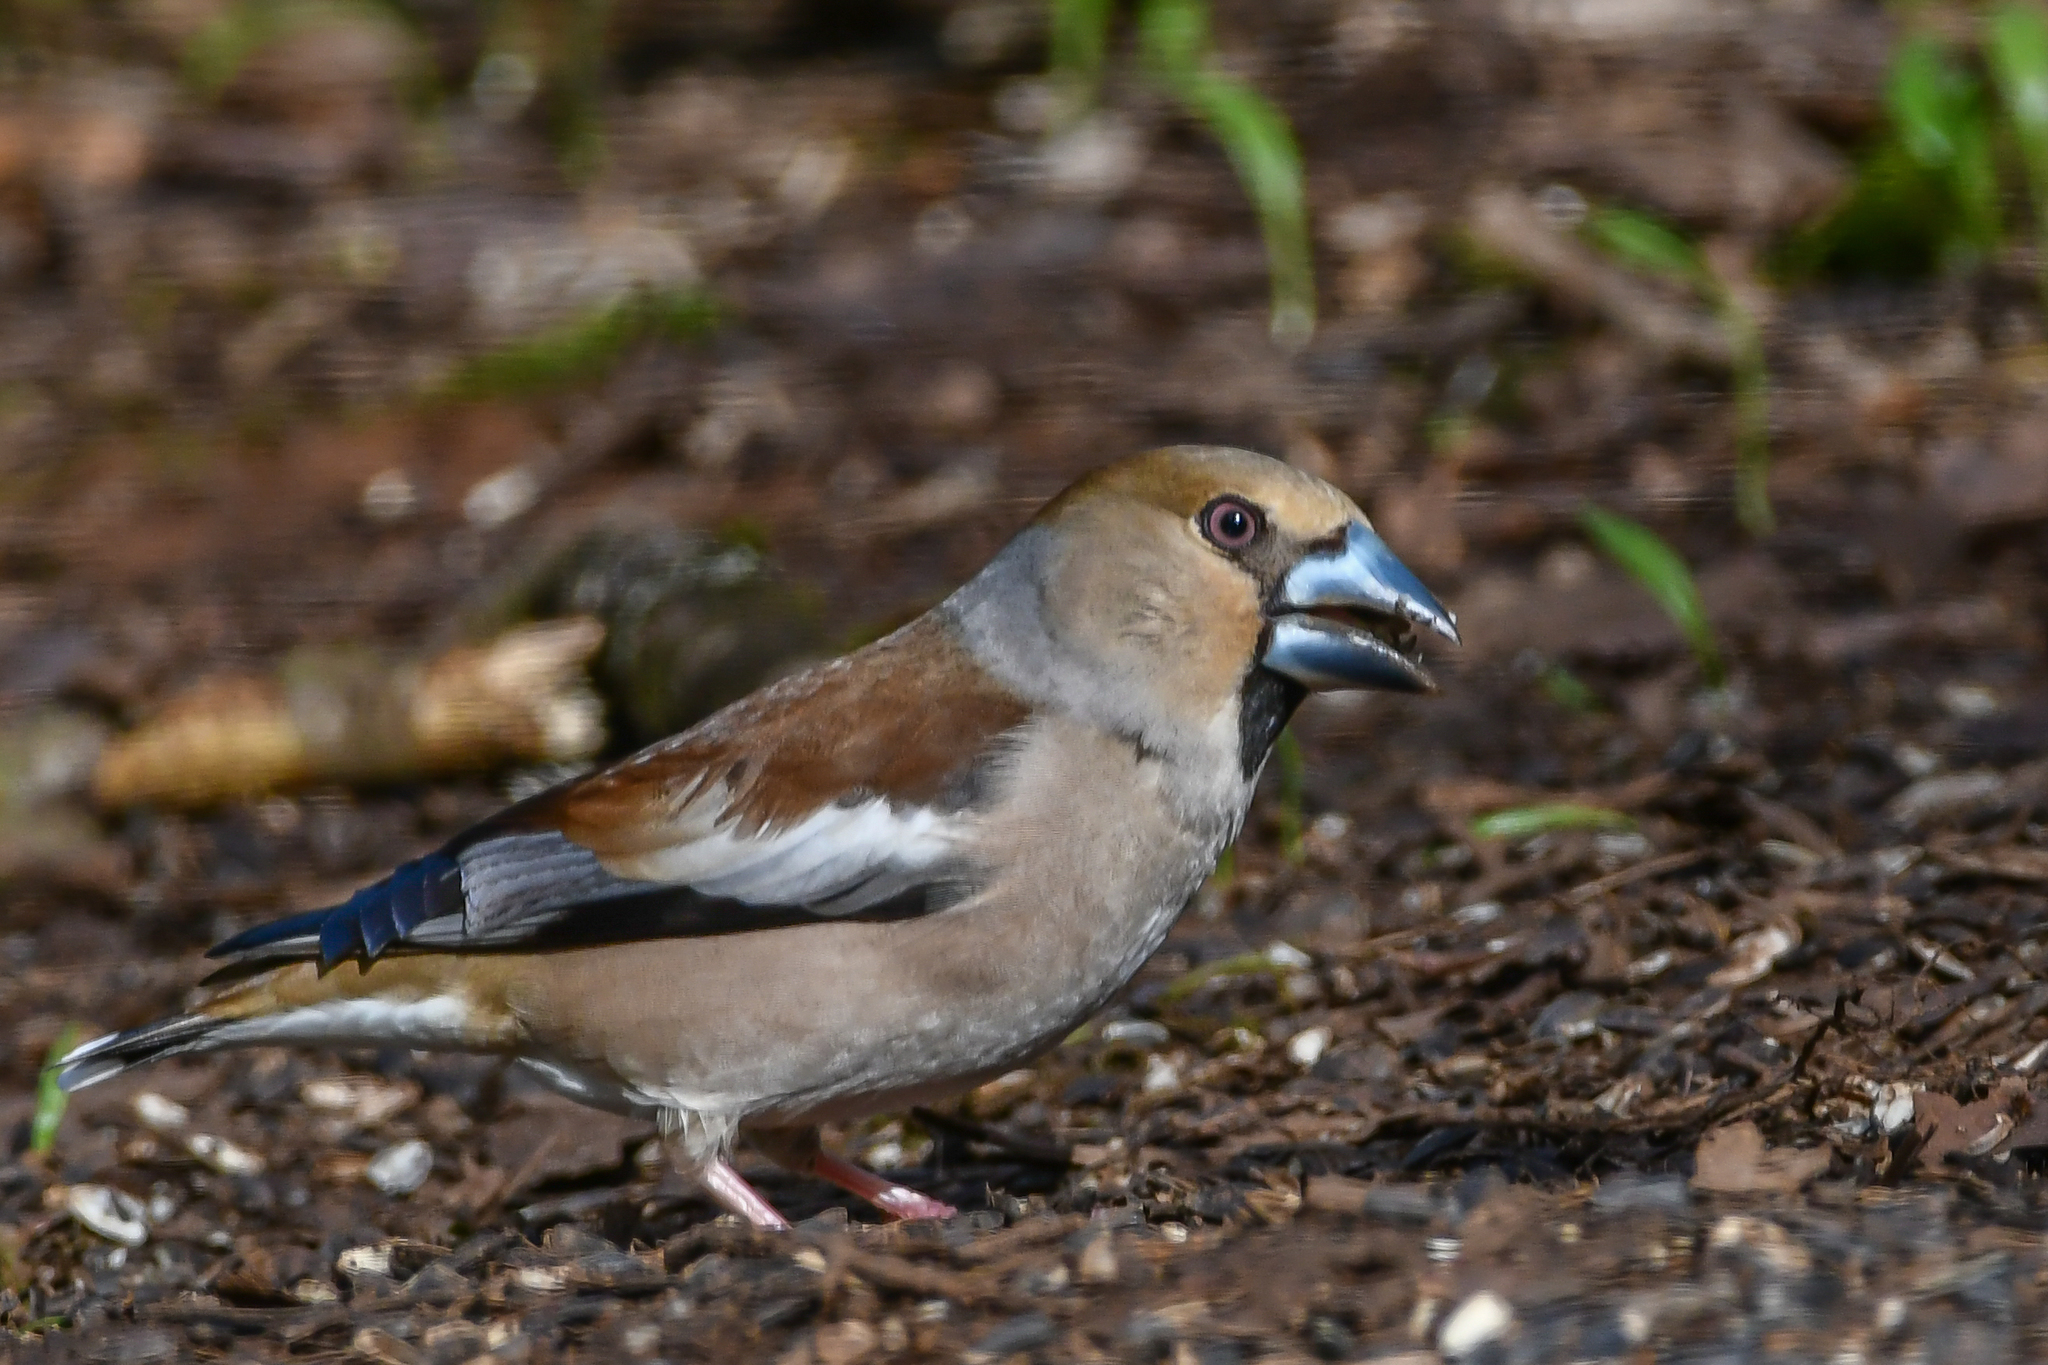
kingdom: Animalia
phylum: Chordata
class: Aves
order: Passeriformes
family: Fringillidae
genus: Coccothraustes
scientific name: Coccothraustes coccothraustes
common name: Hawfinch
